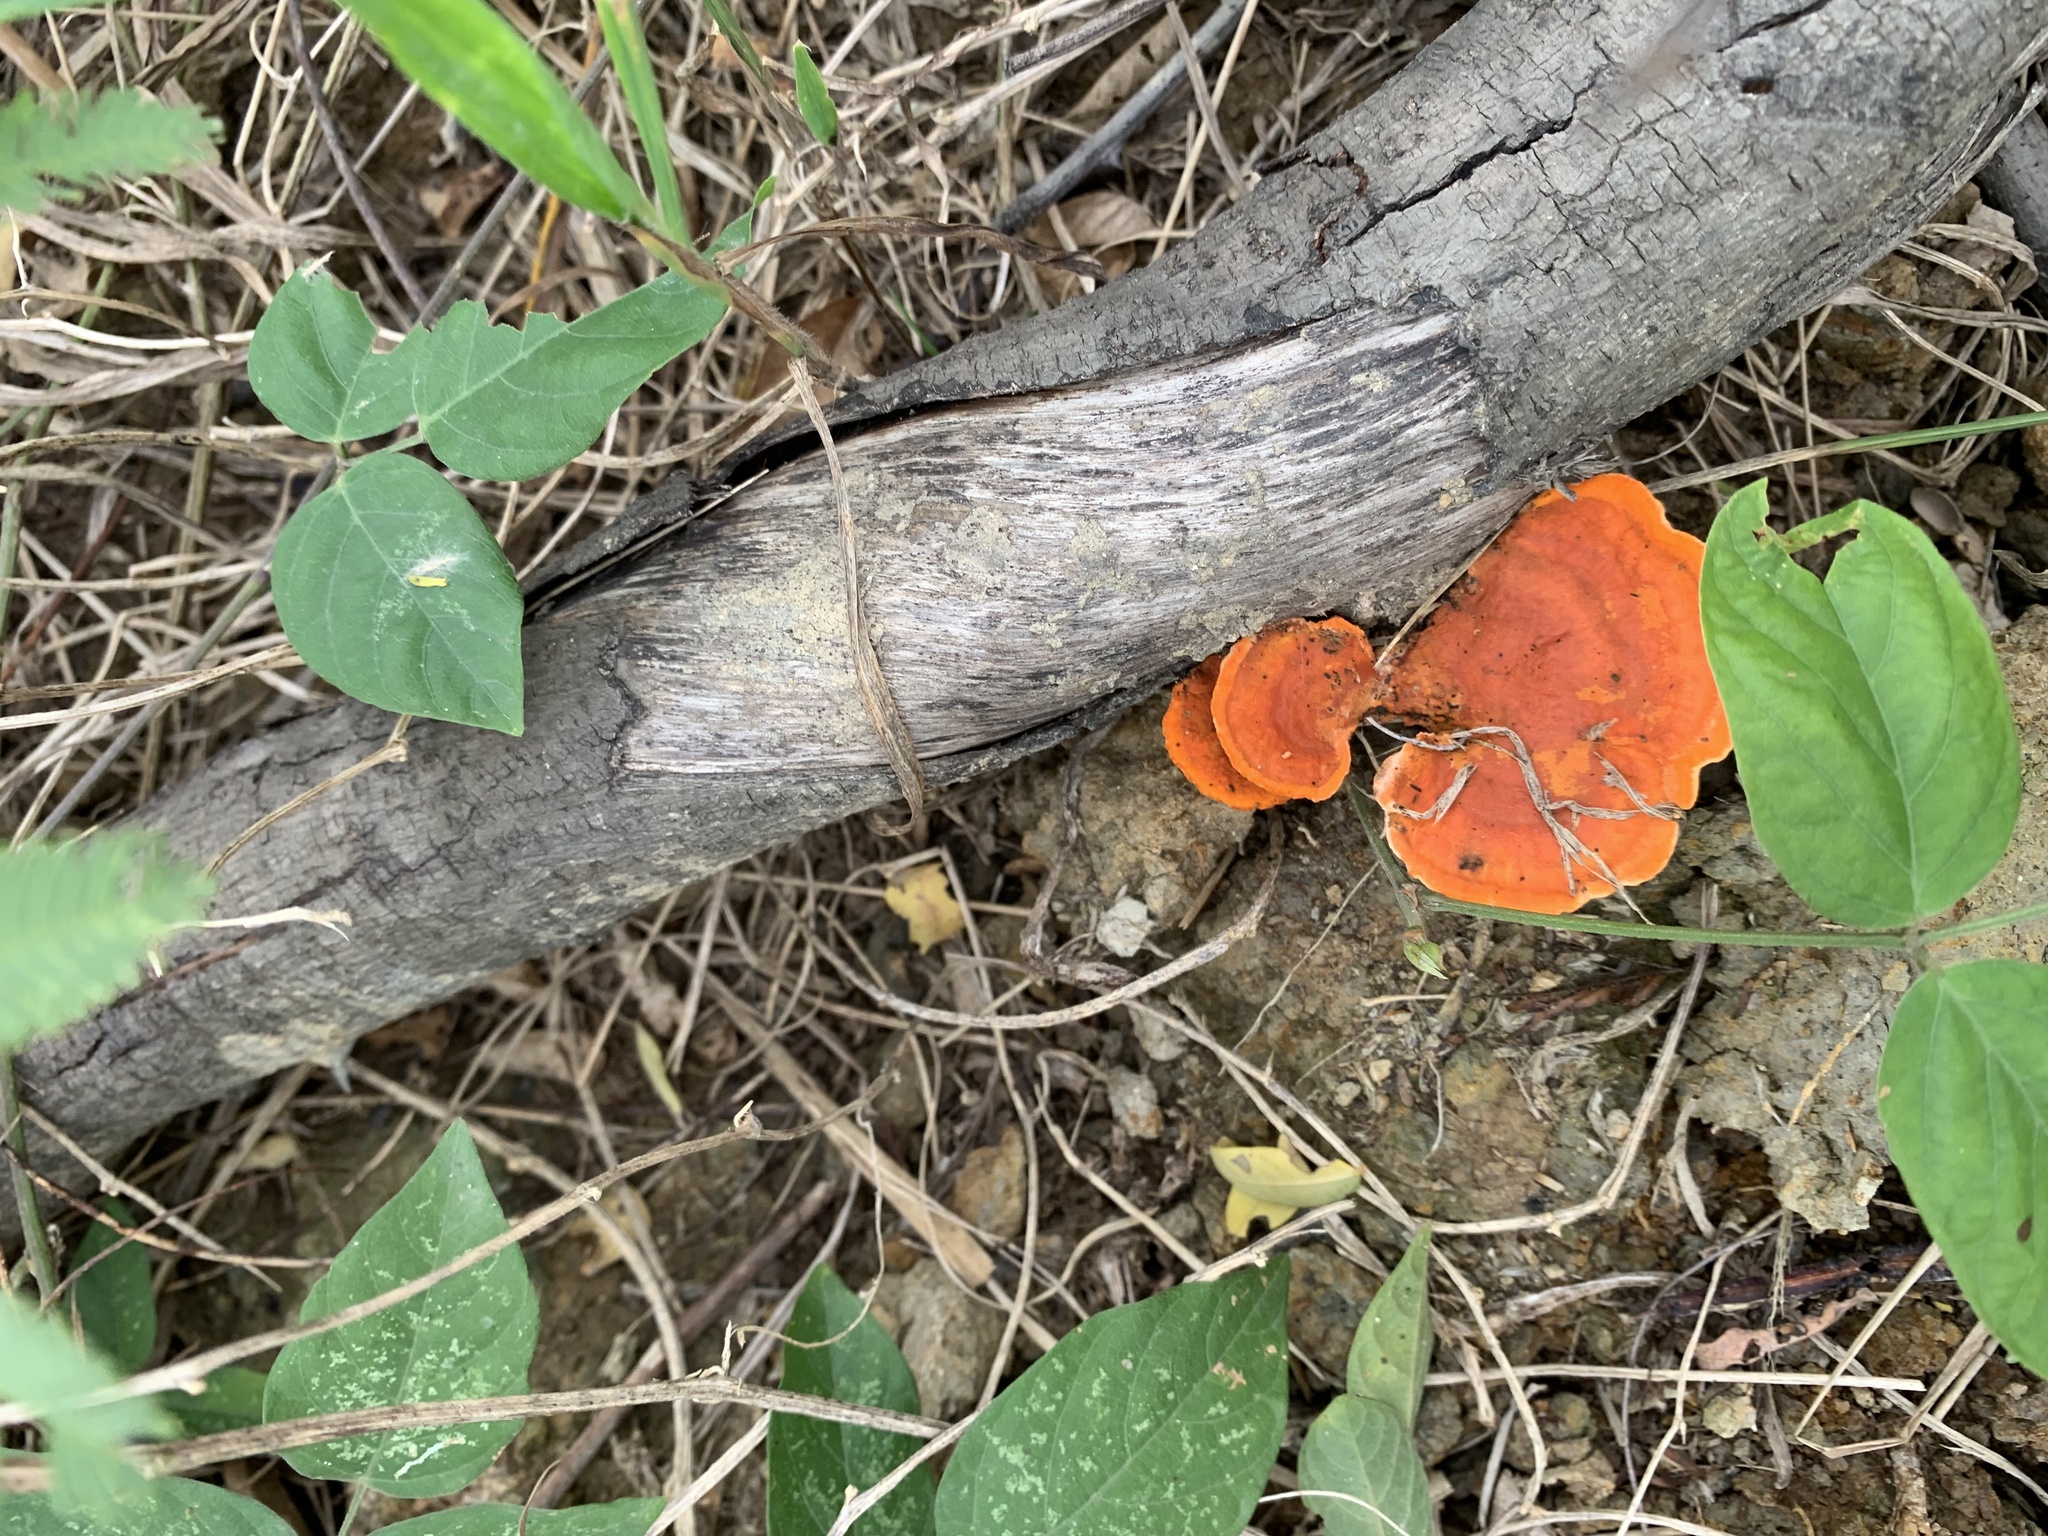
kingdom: Fungi
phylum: Basidiomycota
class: Agaricomycetes
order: Polyporales
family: Polyporaceae
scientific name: Polyporaceae
